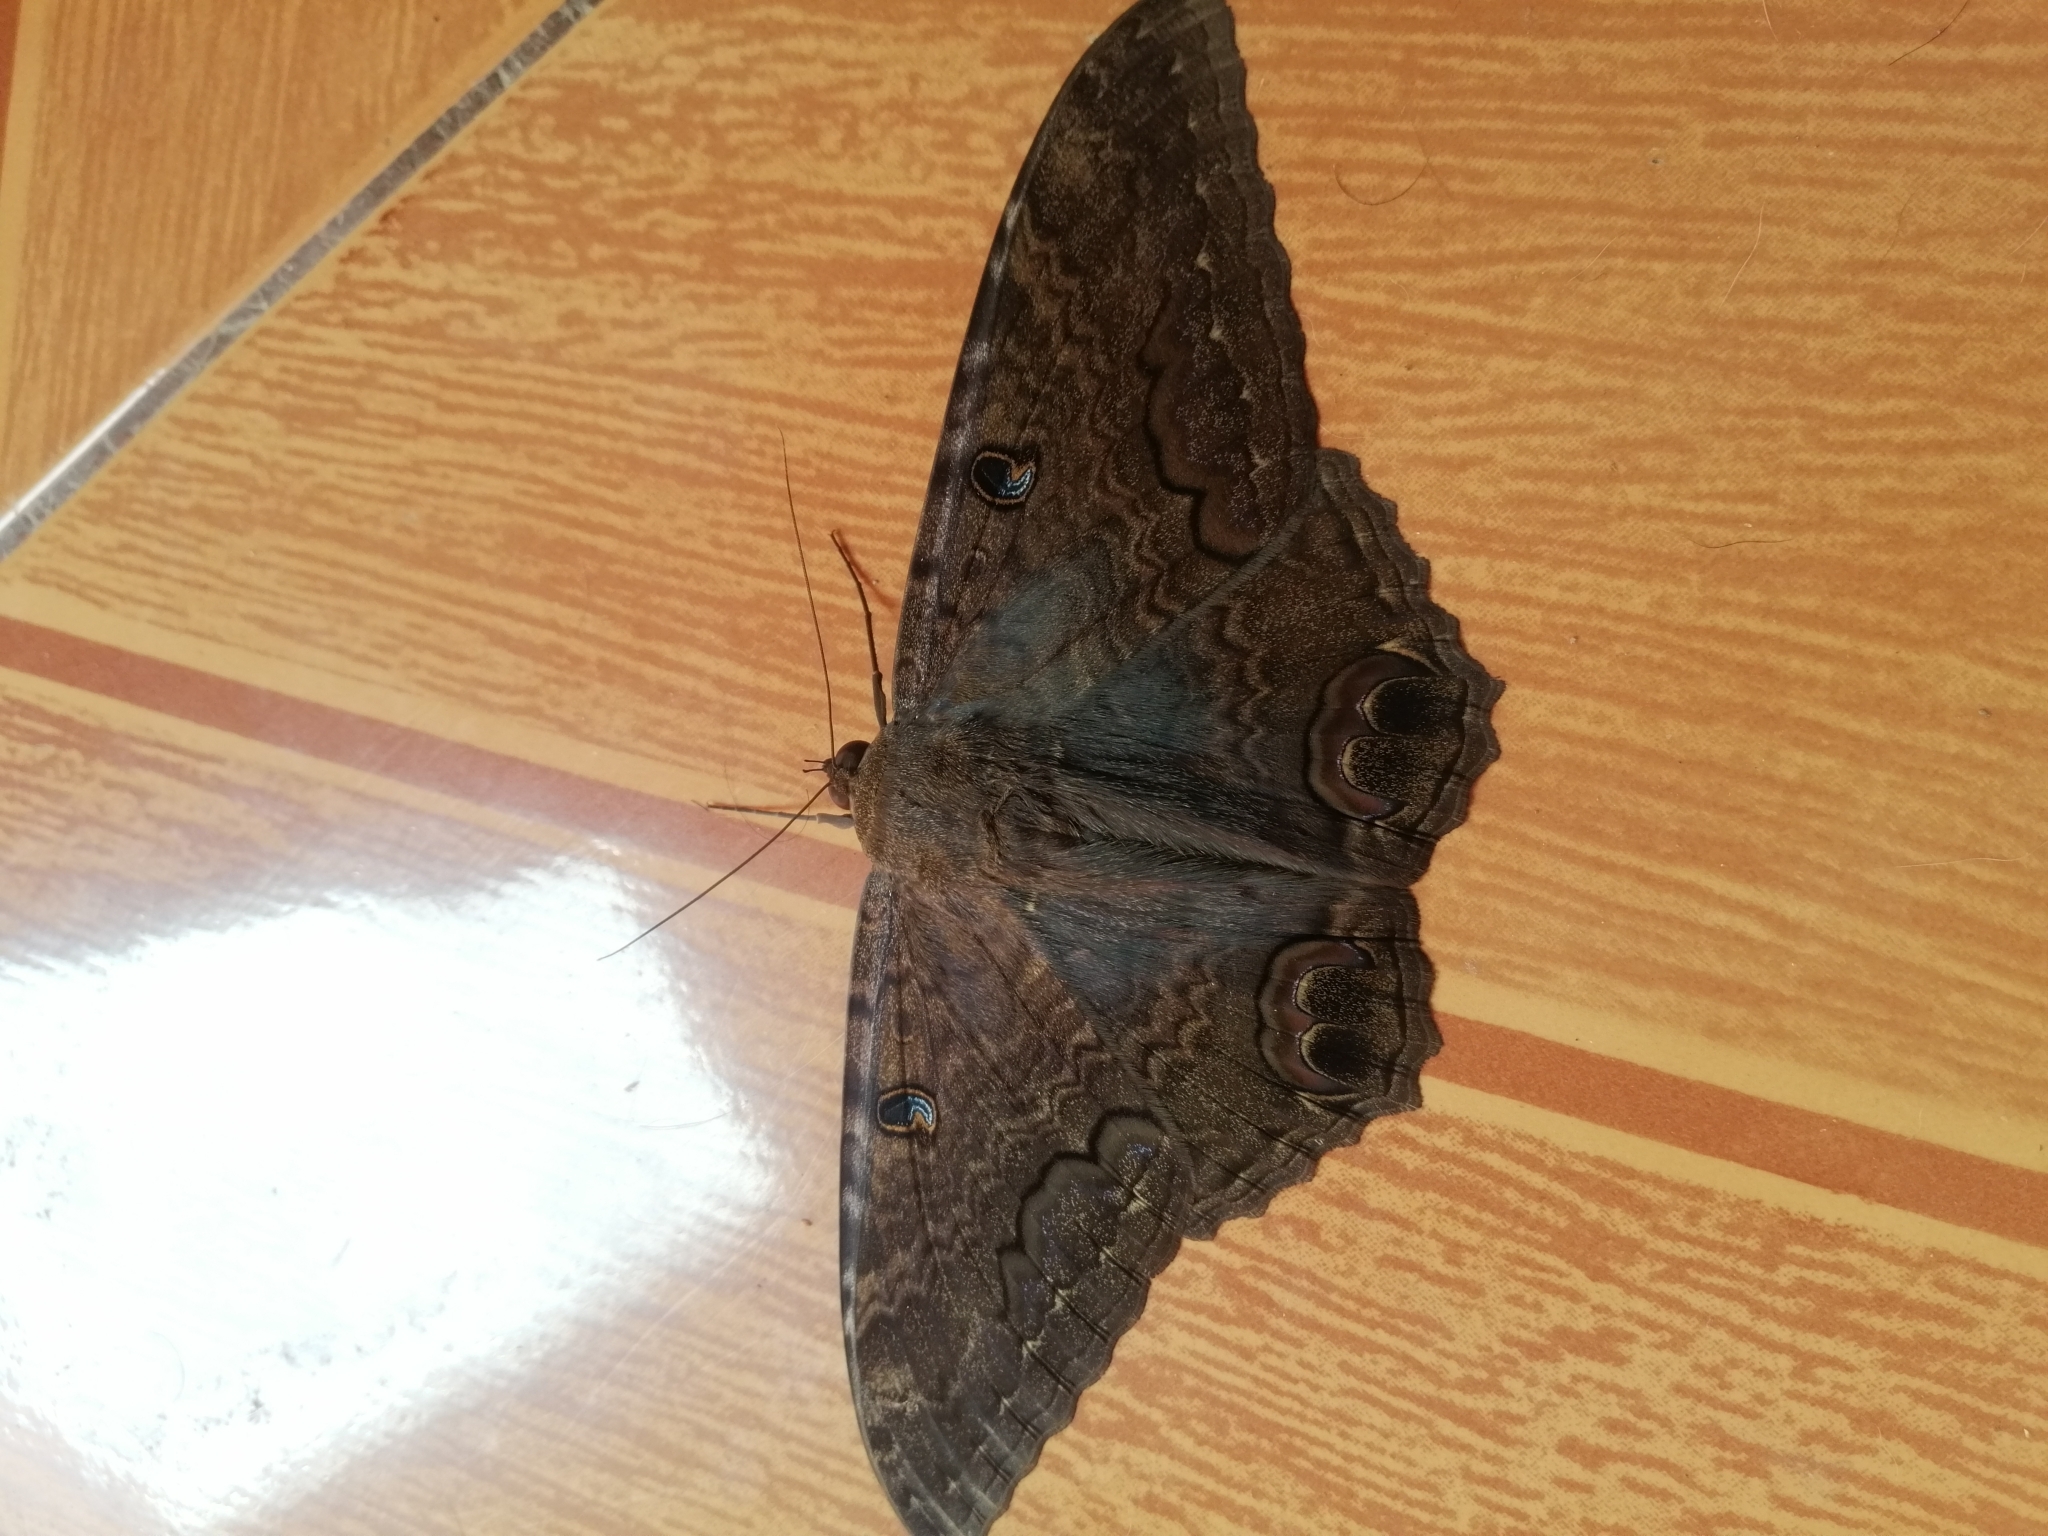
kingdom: Animalia
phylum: Arthropoda
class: Insecta
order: Lepidoptera
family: Erebidae
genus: Ascalapha
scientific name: Ascalapha odorata
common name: Black witch
